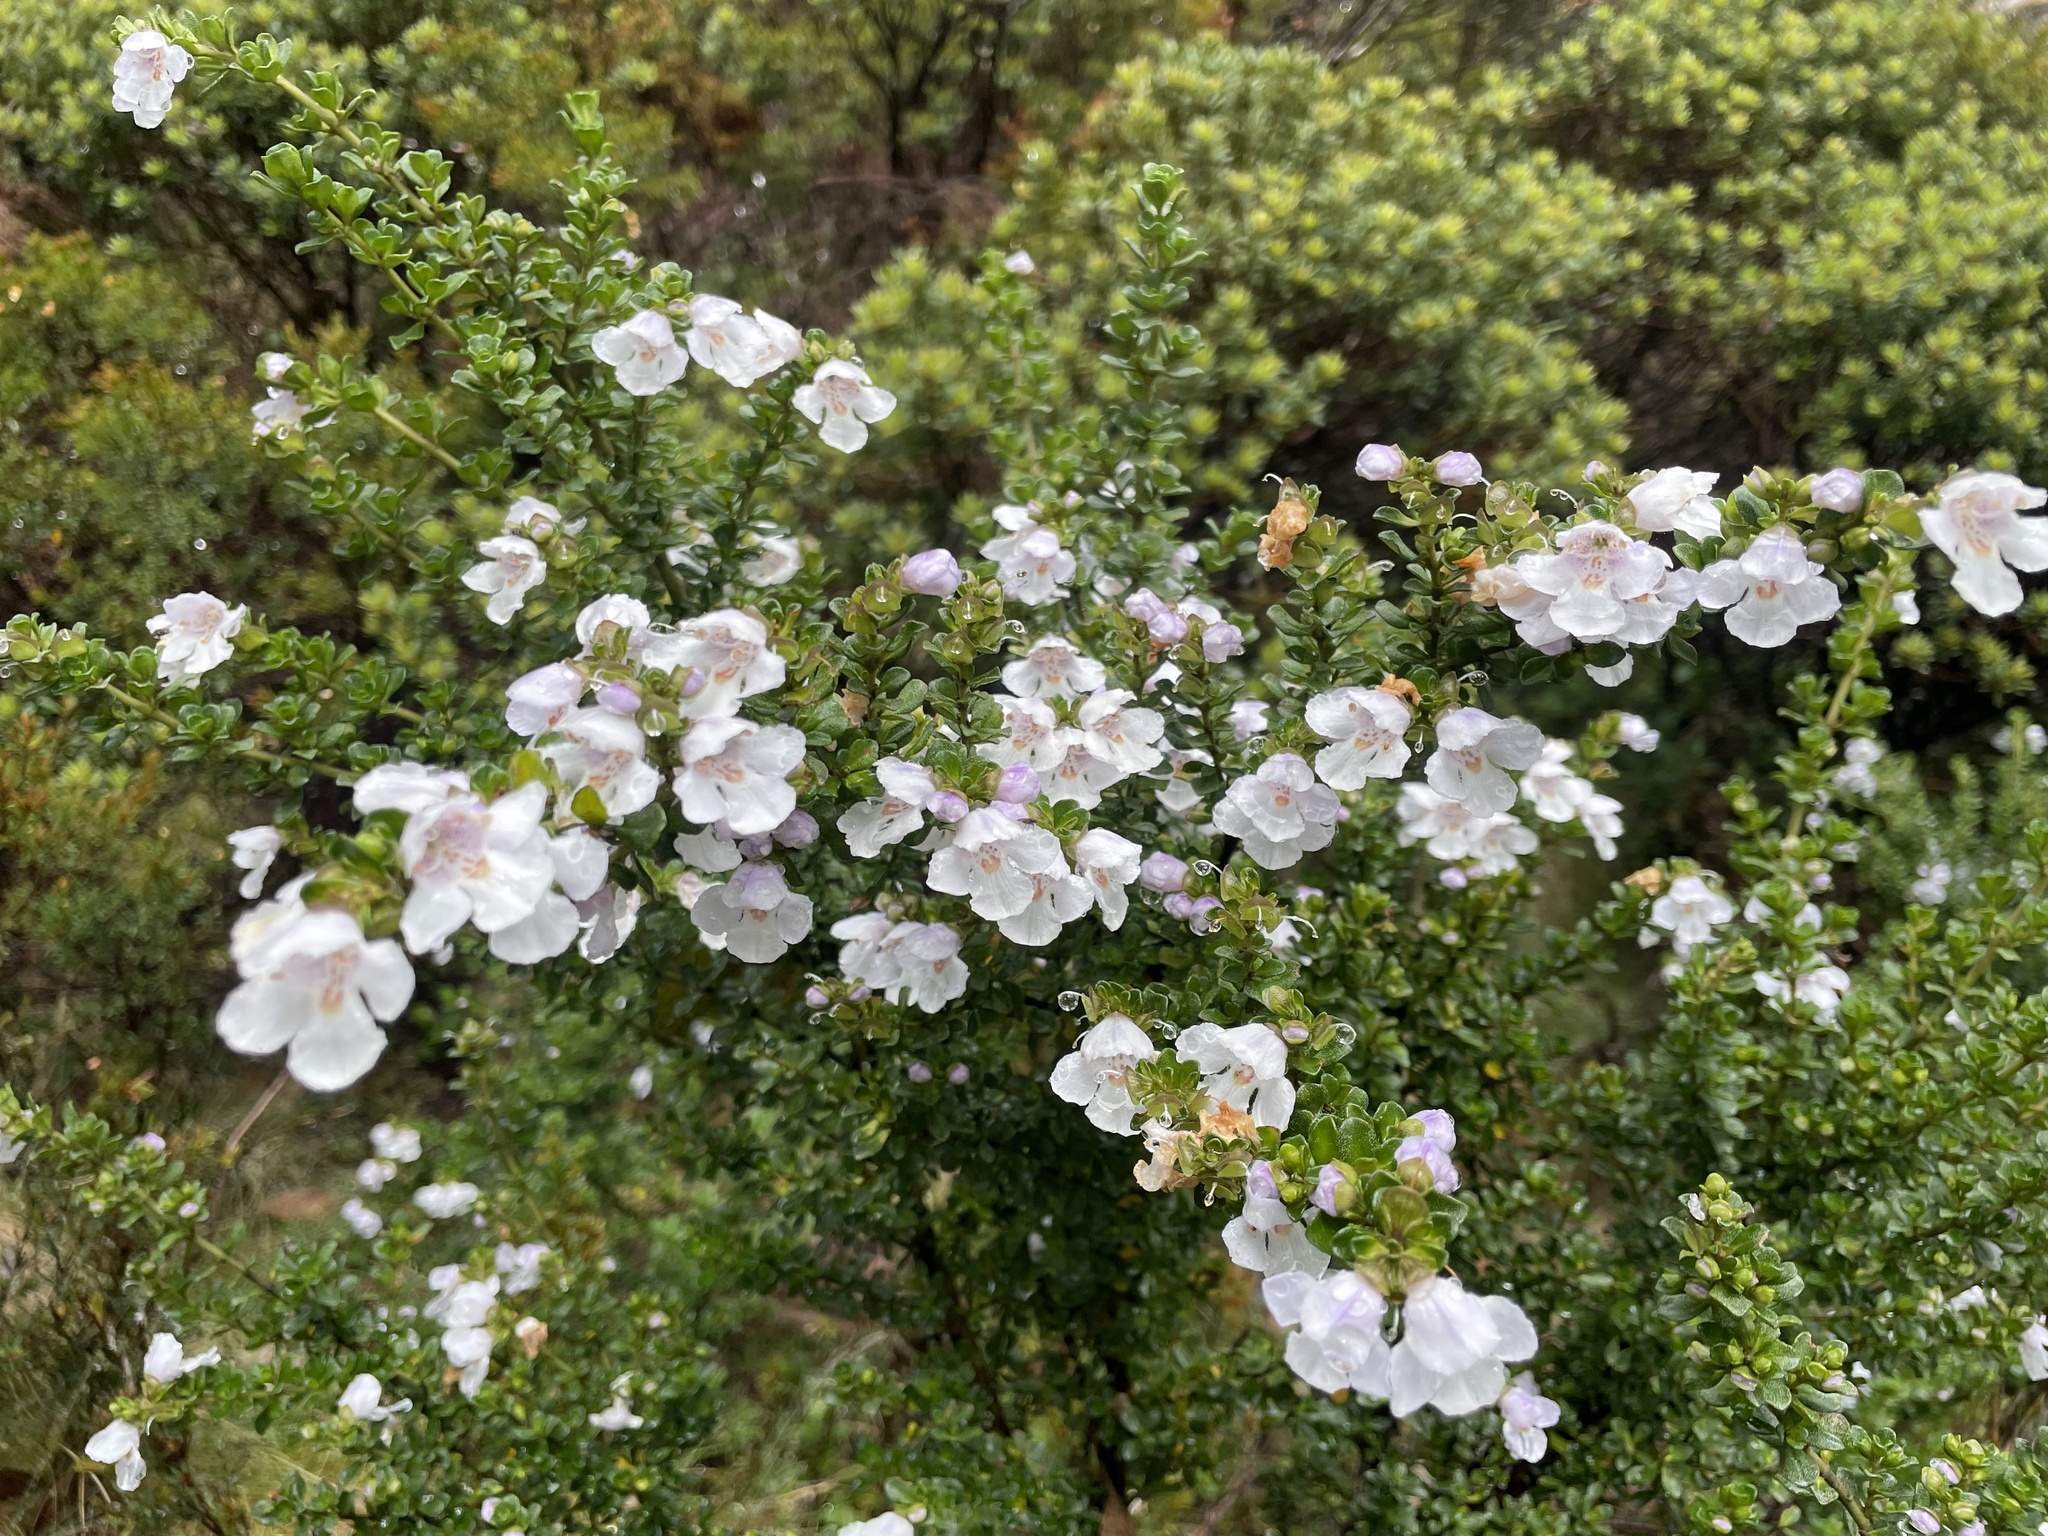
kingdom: Plantae
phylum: Tracheophyta
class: Magnoliopsida
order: Lamiales
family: Lamiaceae
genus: Prostanthera
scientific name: Prostanthera cuneata
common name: Alpine mintbush
